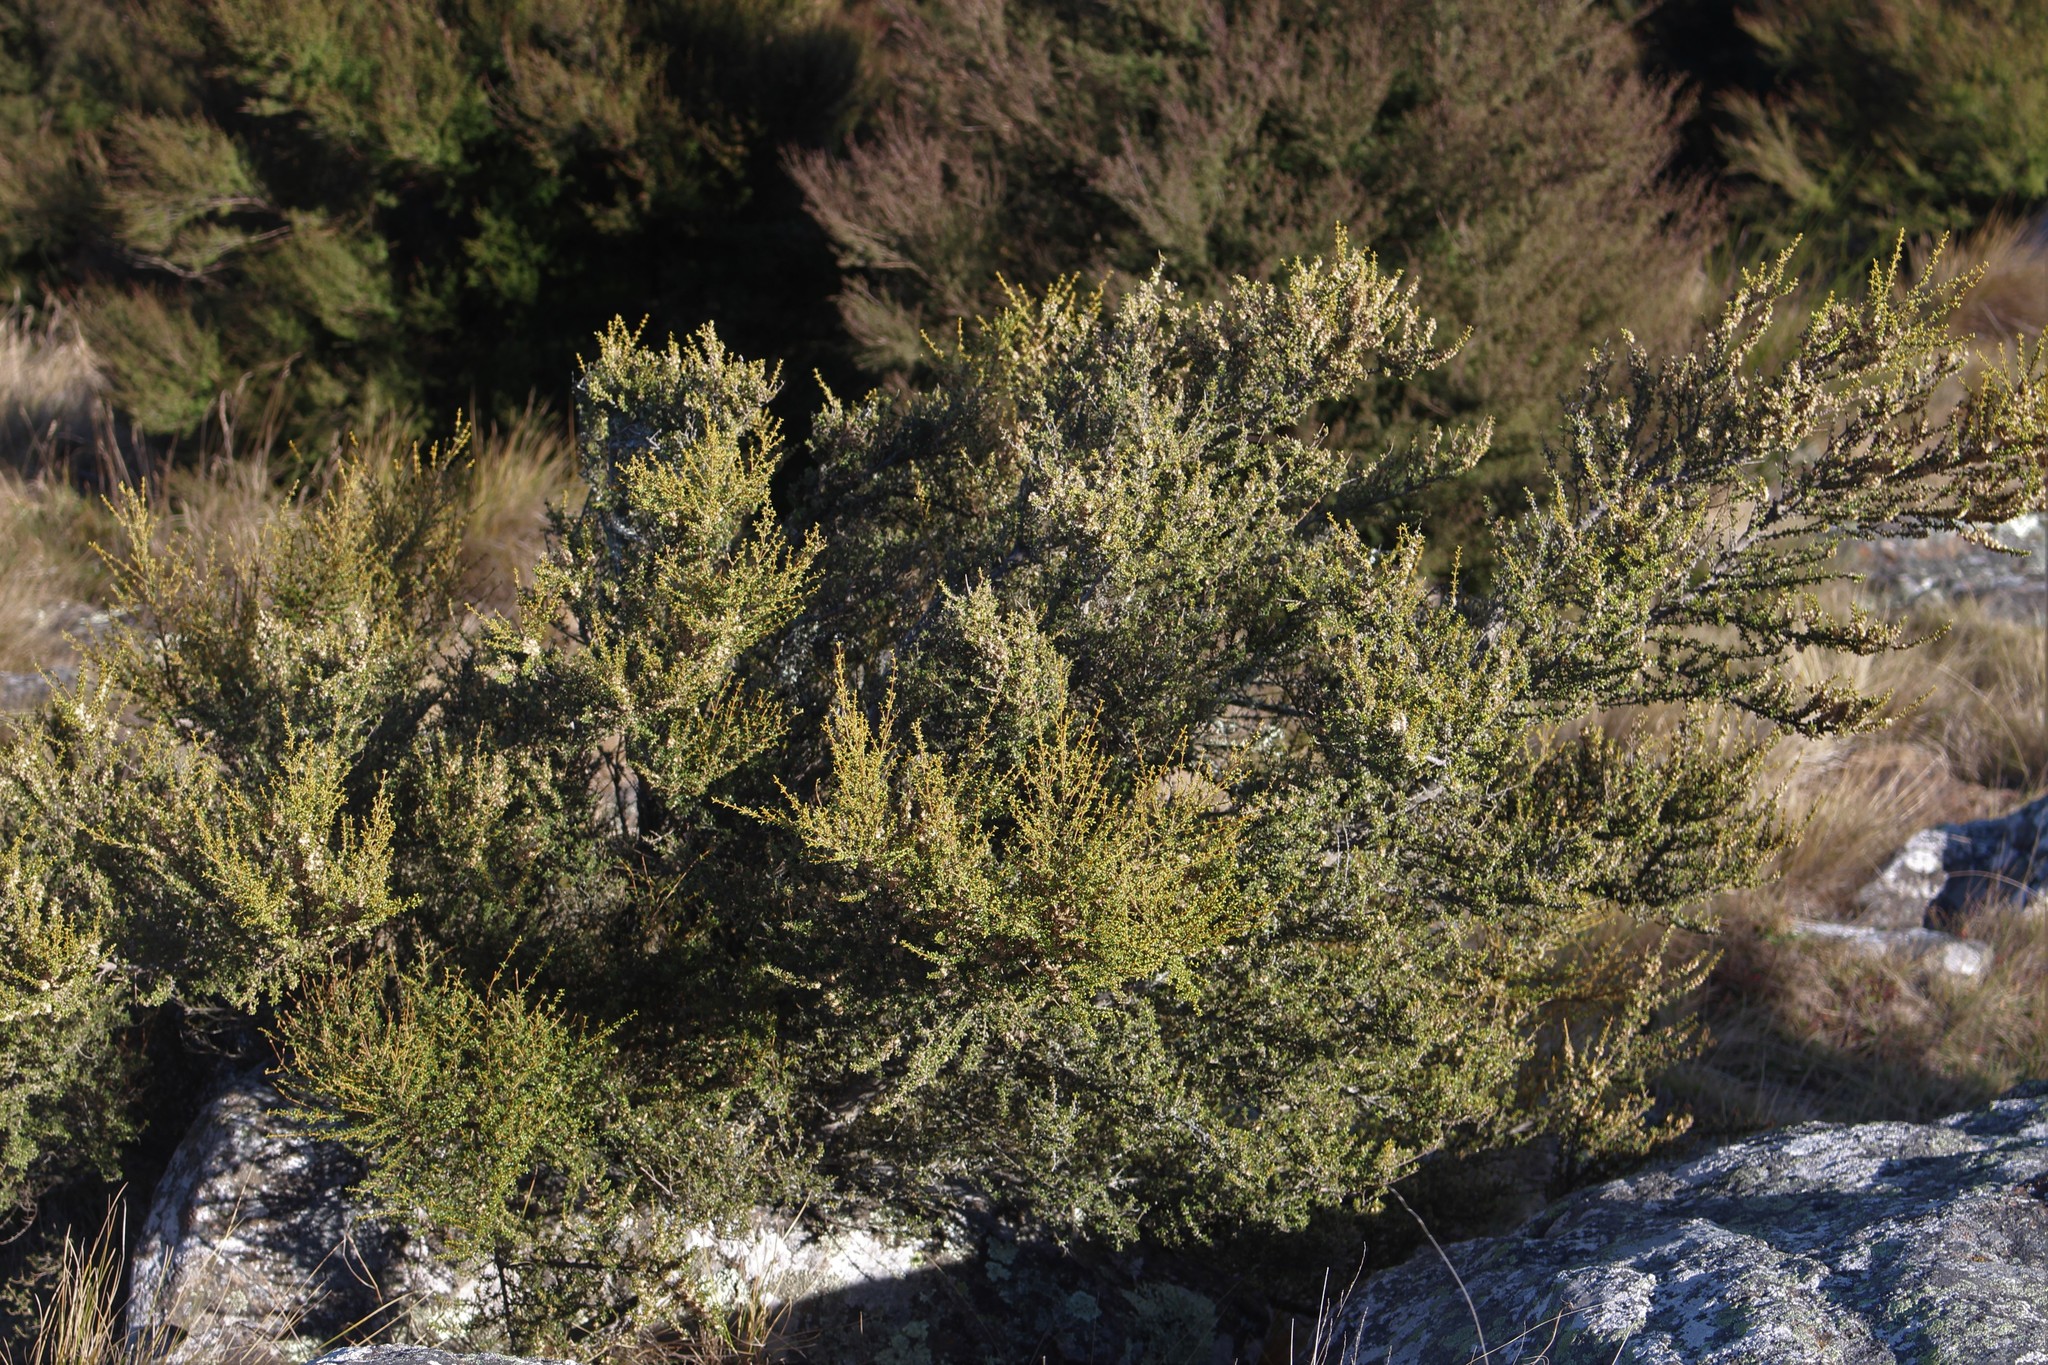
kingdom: Plantae
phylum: Tracheophyta
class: Magnoliopsida
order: Asterales
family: Asteraceae
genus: Olearia
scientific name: Olearia solandri
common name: Coastal daisybush
